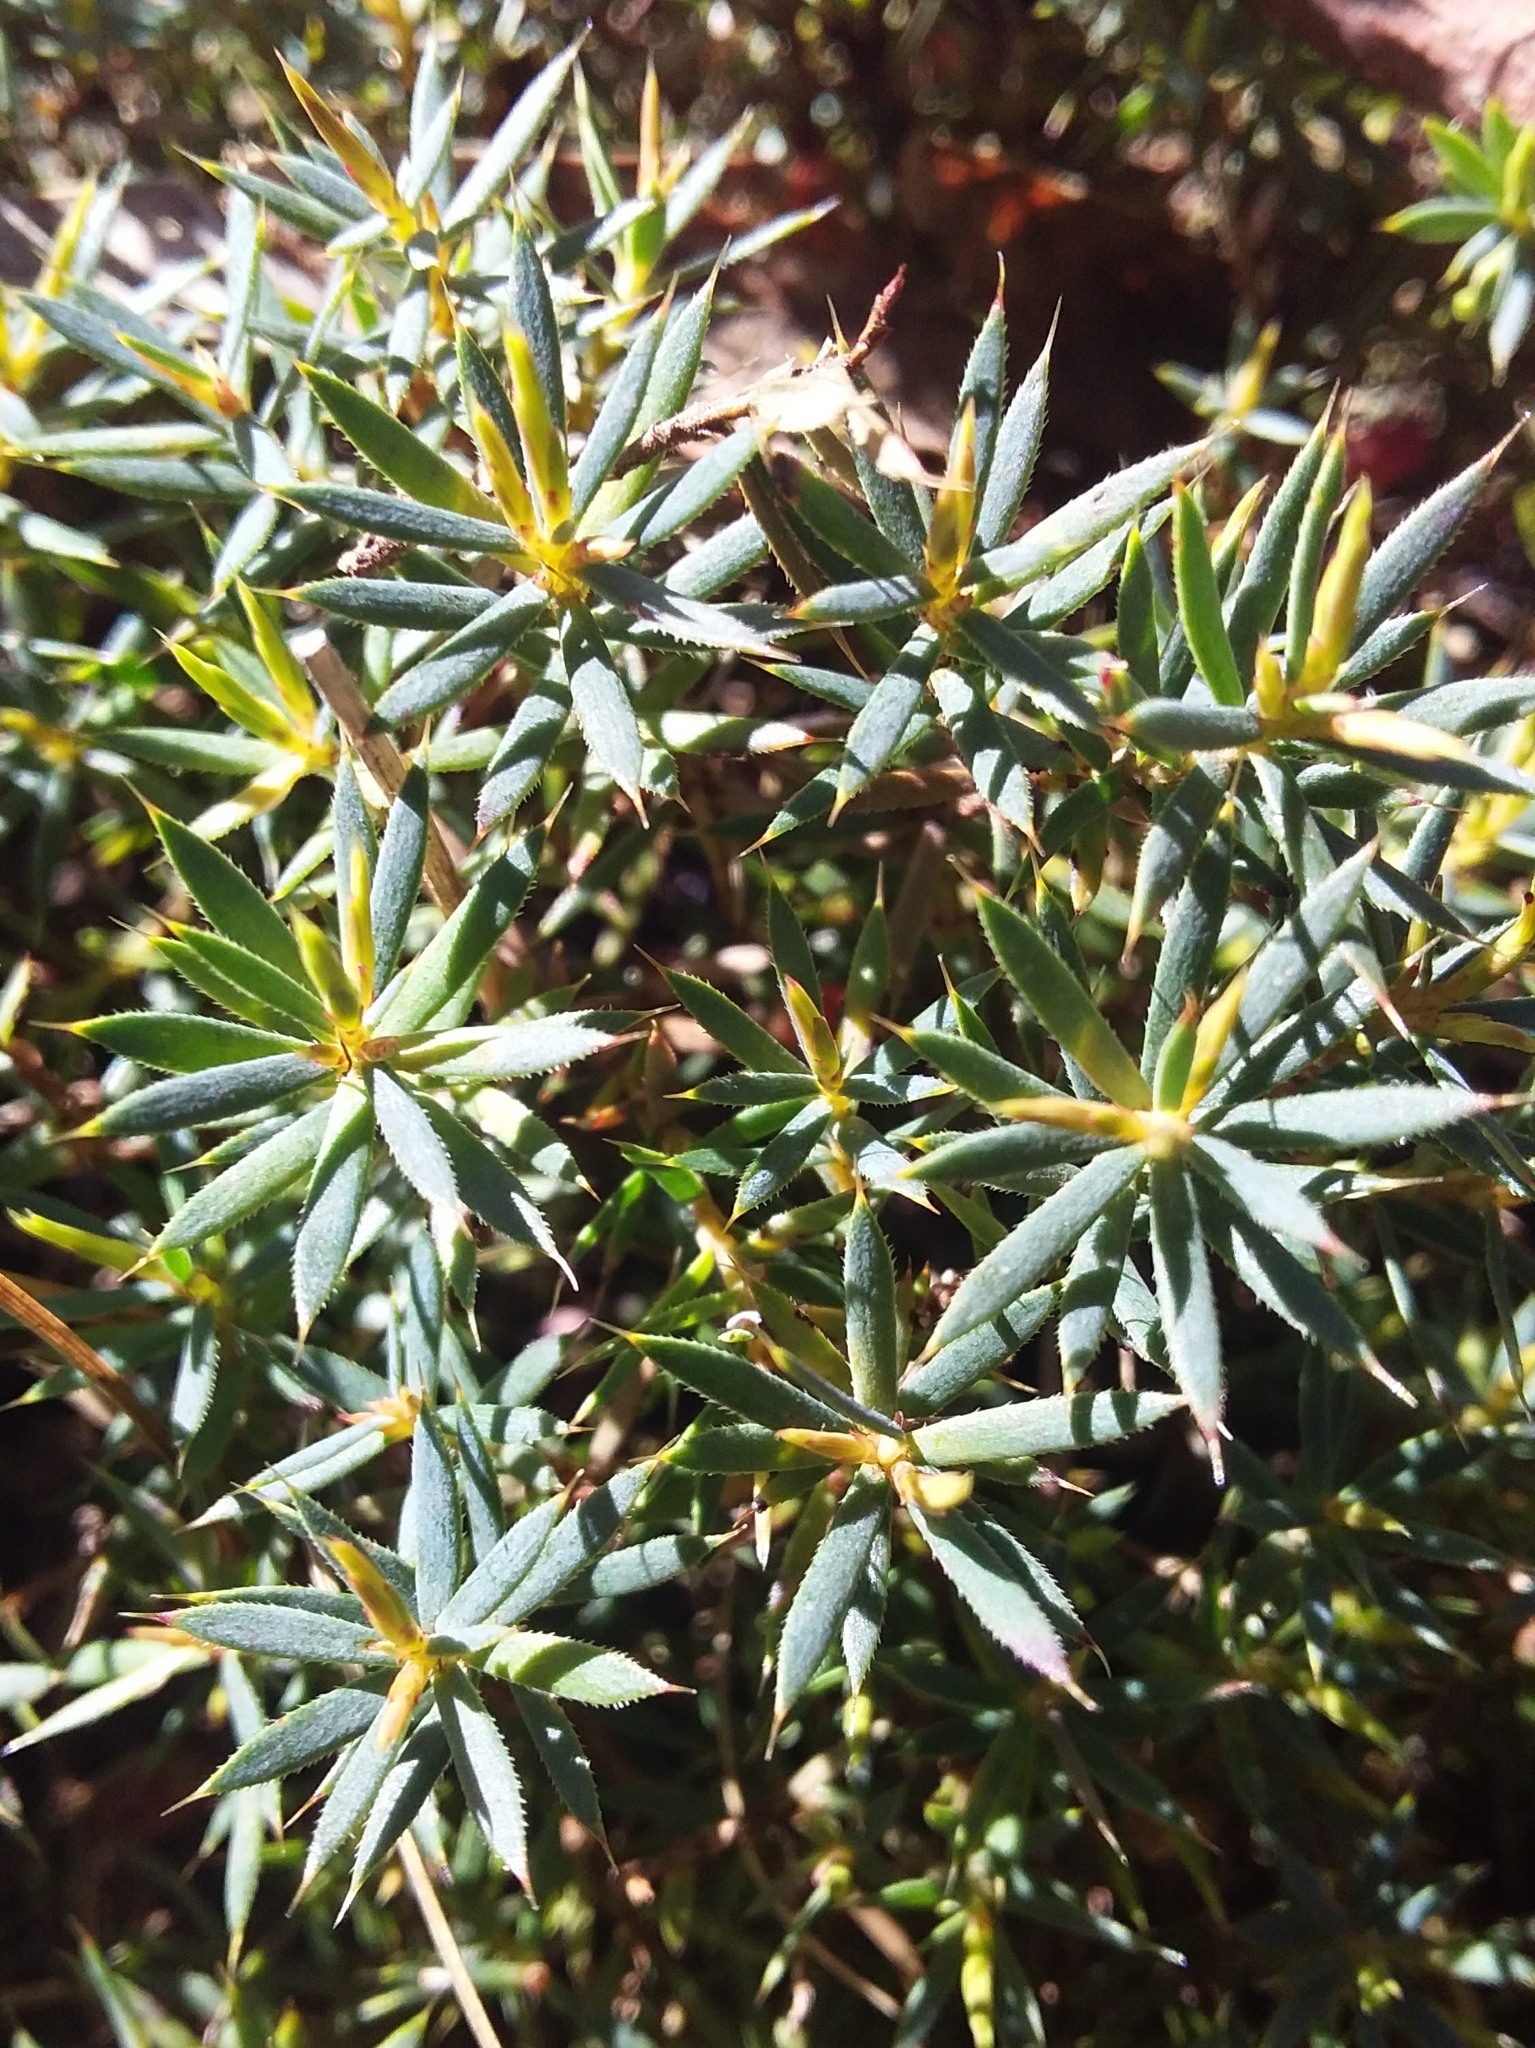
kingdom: Plantae
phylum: Tracheophyta
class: Magnoliopsida
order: Ericales
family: Ericaceae
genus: Styphelia
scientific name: Styphelia humifusa
